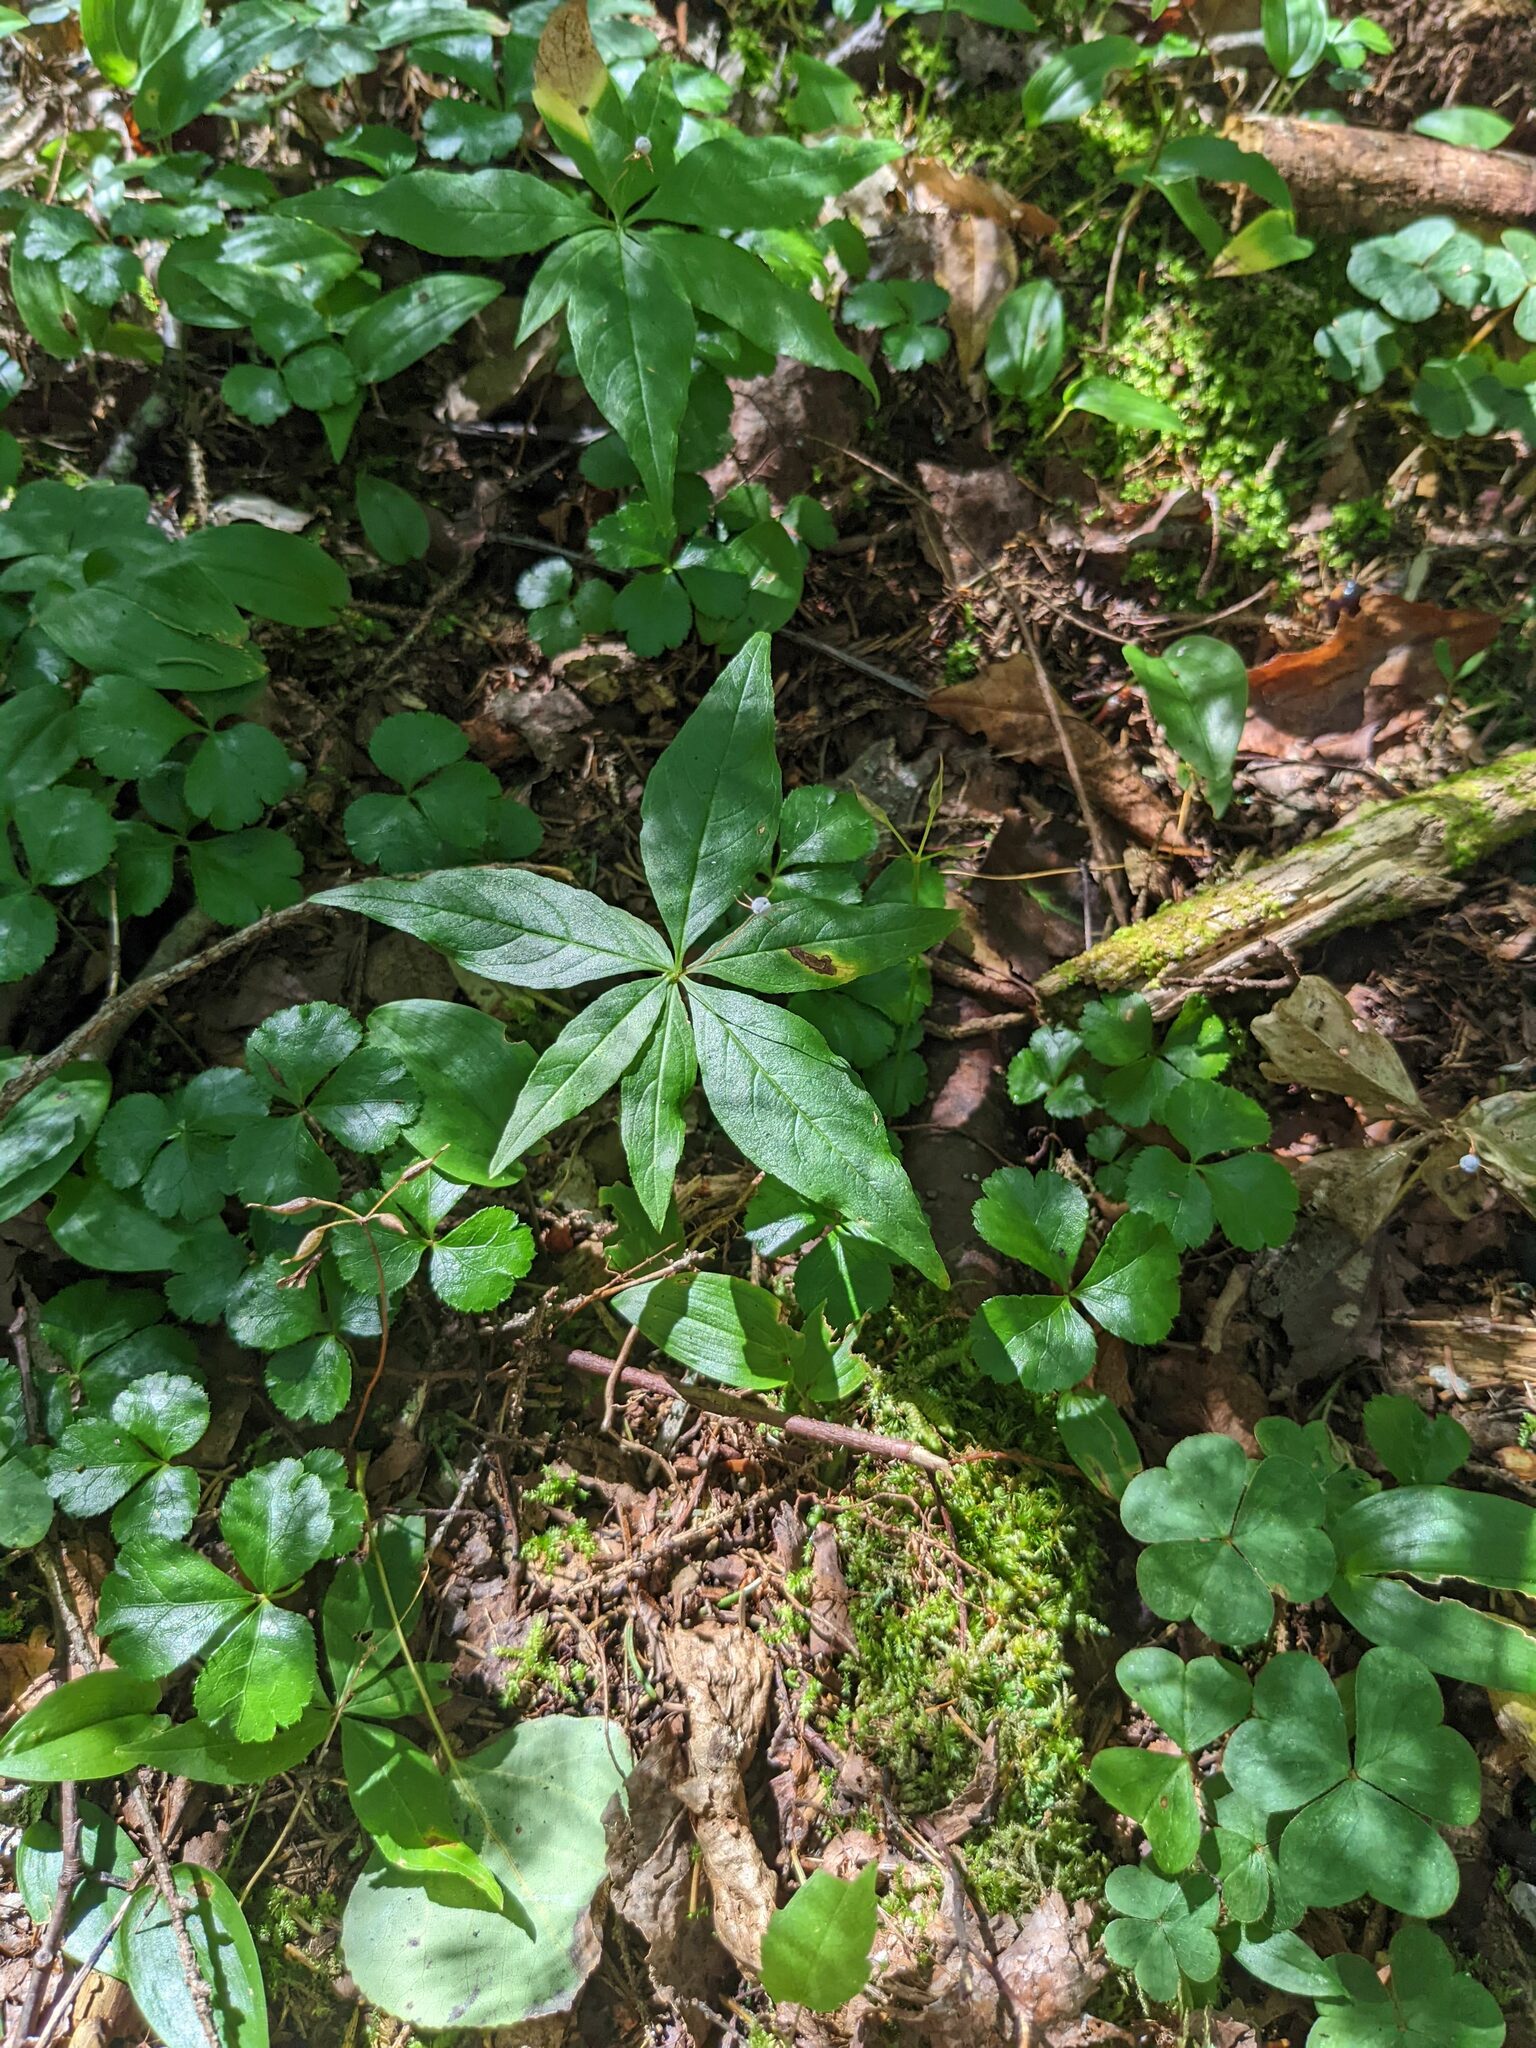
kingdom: Plantae
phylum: Tracheophyta
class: Magnoliopsida
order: Ericales
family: Primulaceae
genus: Lysimachia
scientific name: Lysimachia borealis
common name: American starflower
